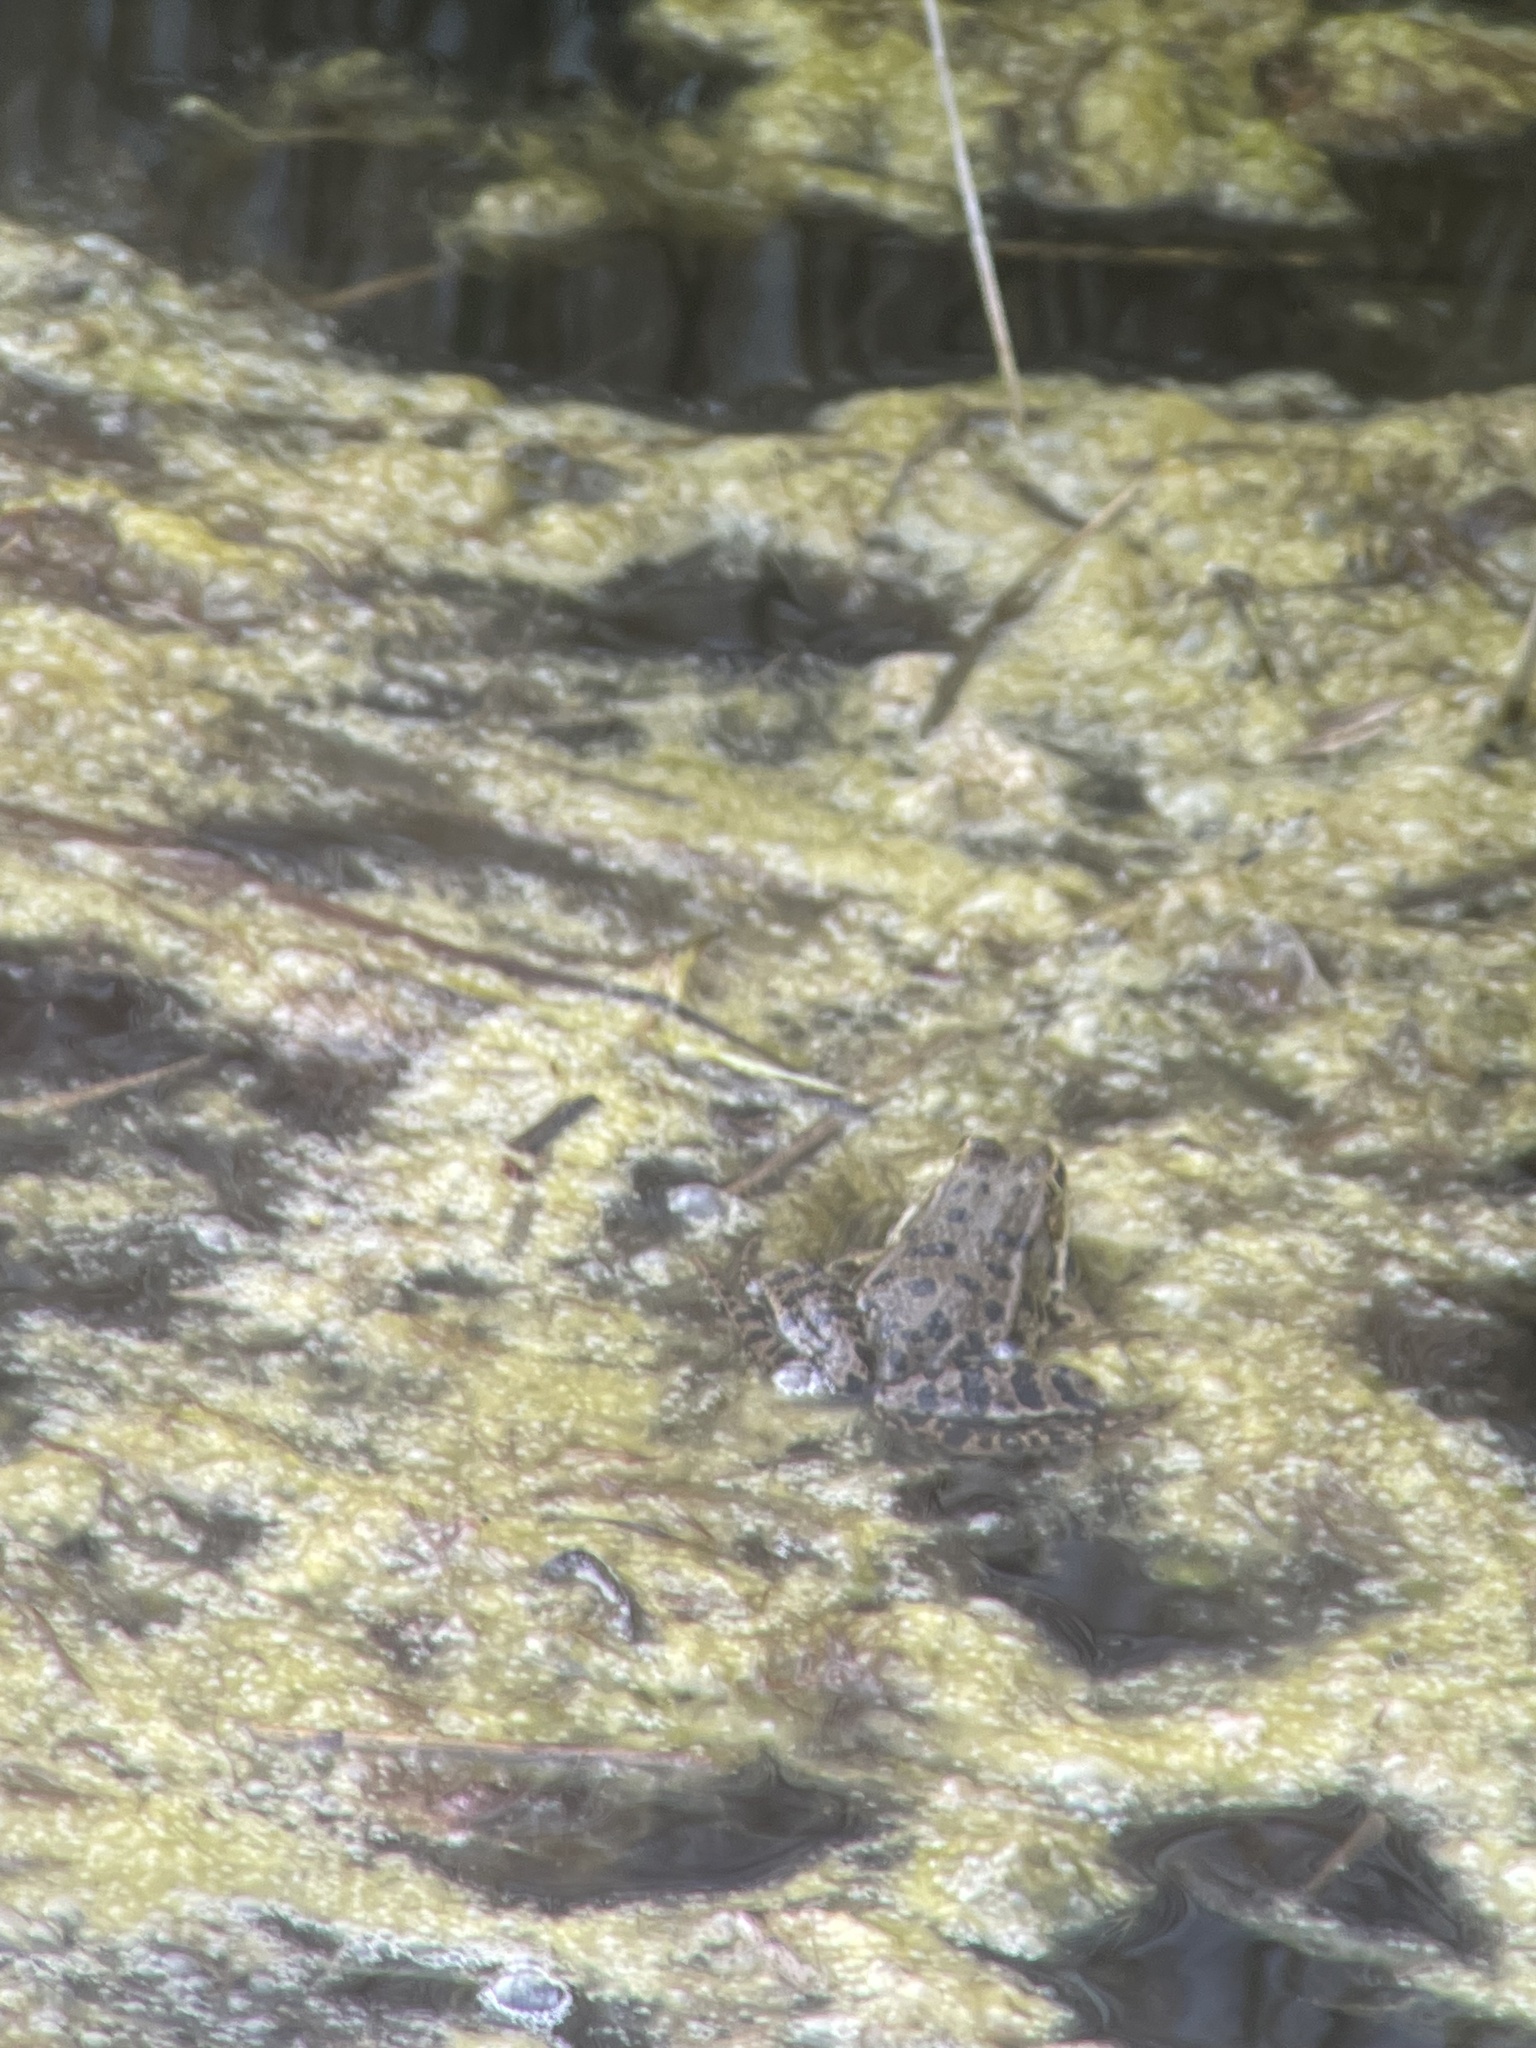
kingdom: Animalia
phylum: Chordata
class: Amphibia
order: Anura
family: Ranidae
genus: Pelophylax
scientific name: Pelophylax ridibundus
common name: Marsh frog
